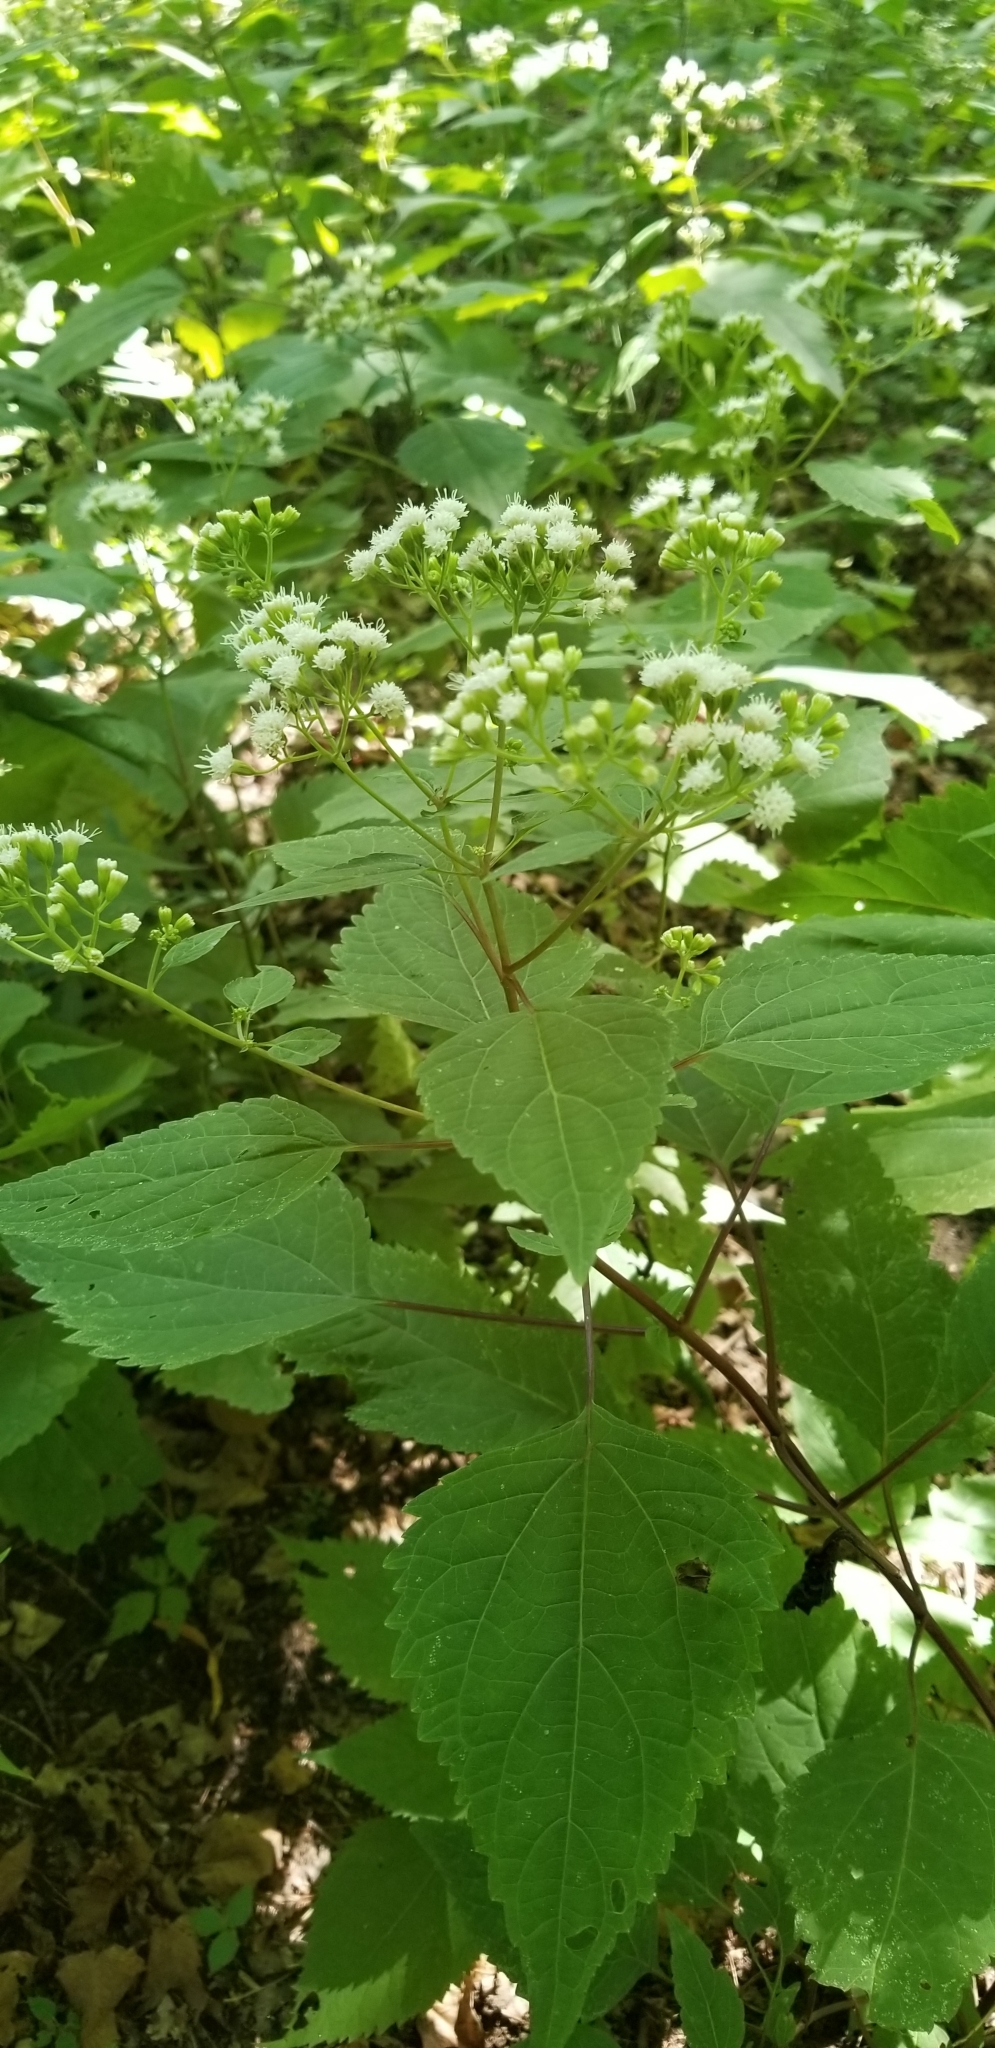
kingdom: Plantae
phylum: Tracheophyta
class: Magnoliopsida
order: Asterales
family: Asteraceae
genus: Ageratina
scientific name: Ageratina altissima
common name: White snakeroot
